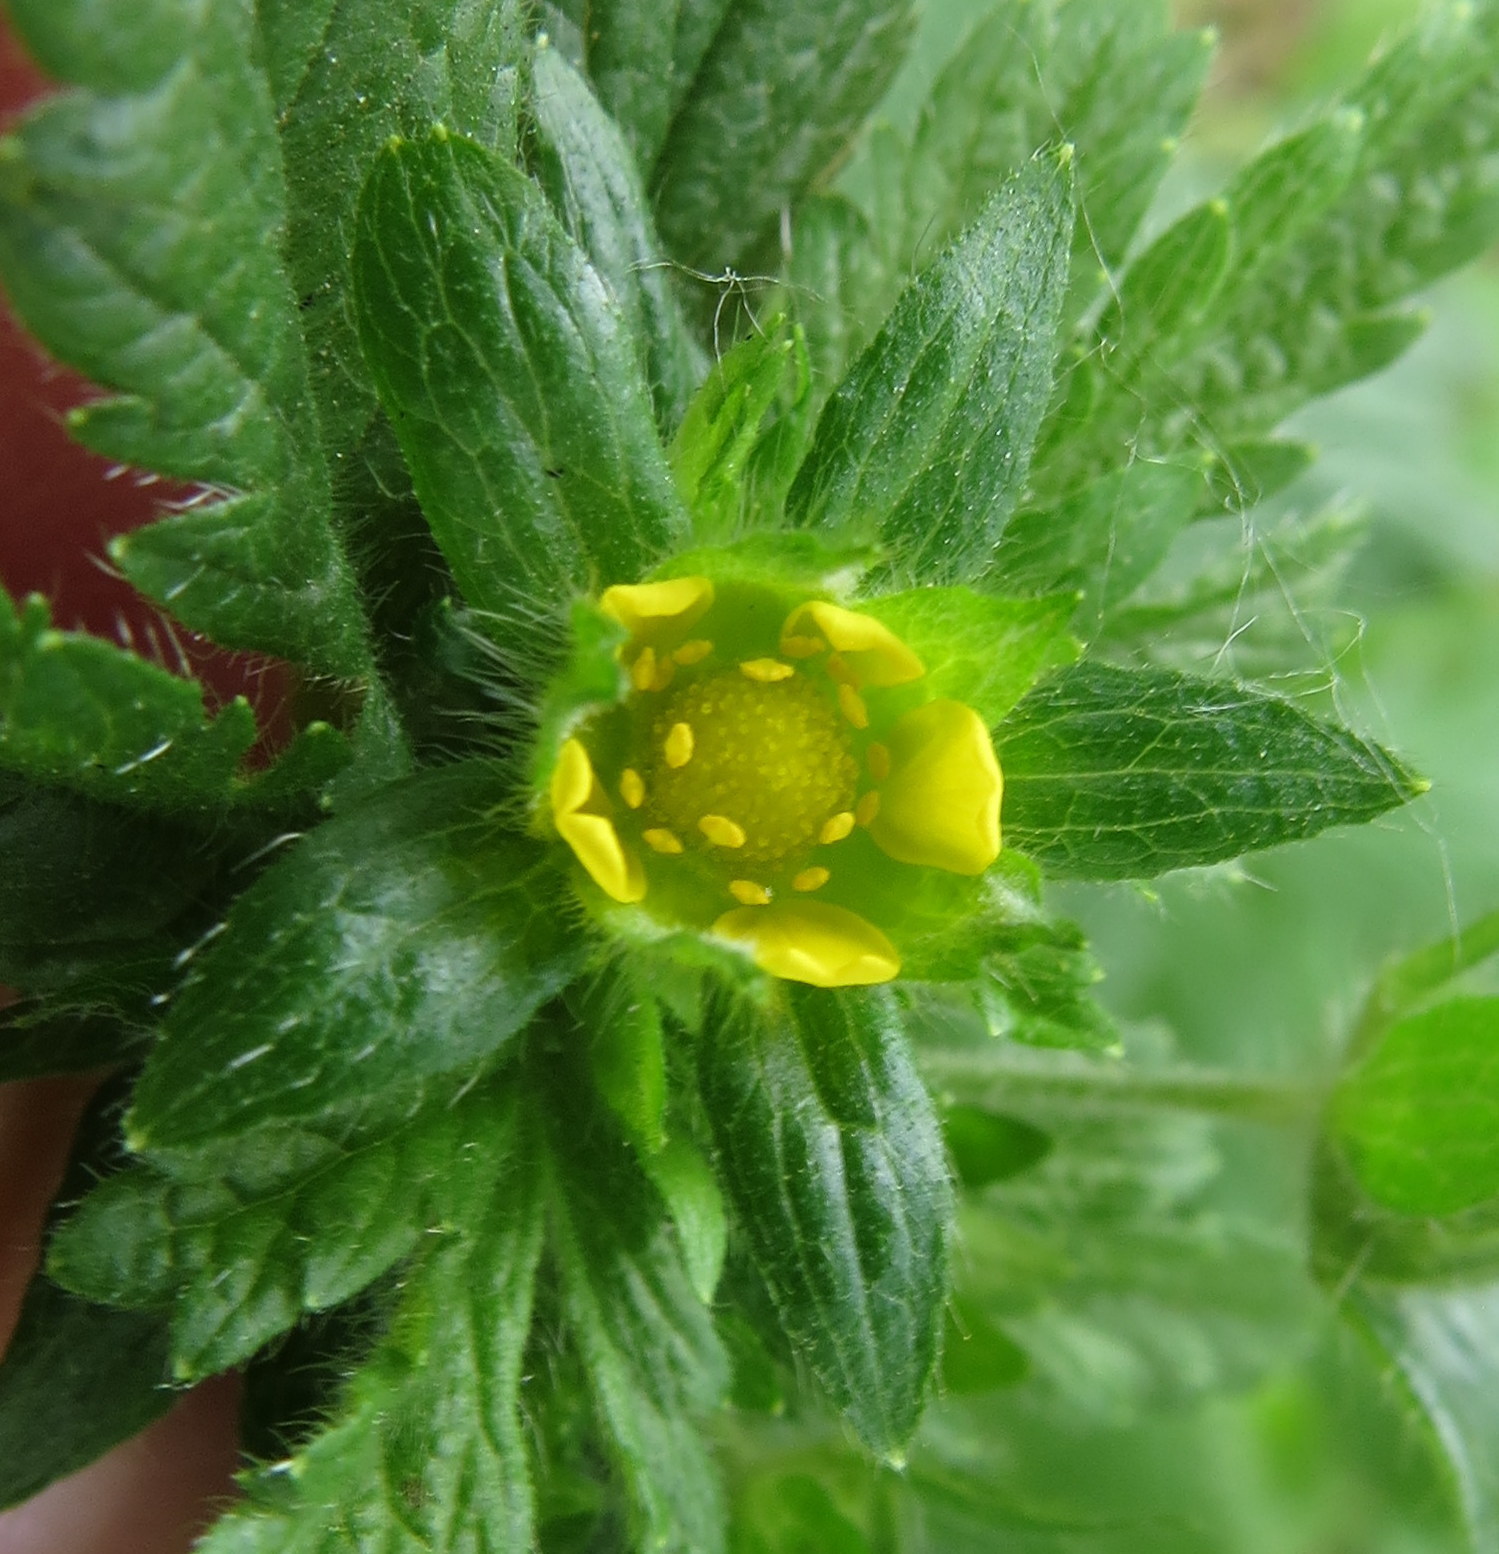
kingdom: Plantae
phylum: Tracheophyta
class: Magnoliopsida
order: Rosales
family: Rosaceae
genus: Potentilla
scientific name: Potentilla norvegica
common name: Ternate-leaved cinquefoil
